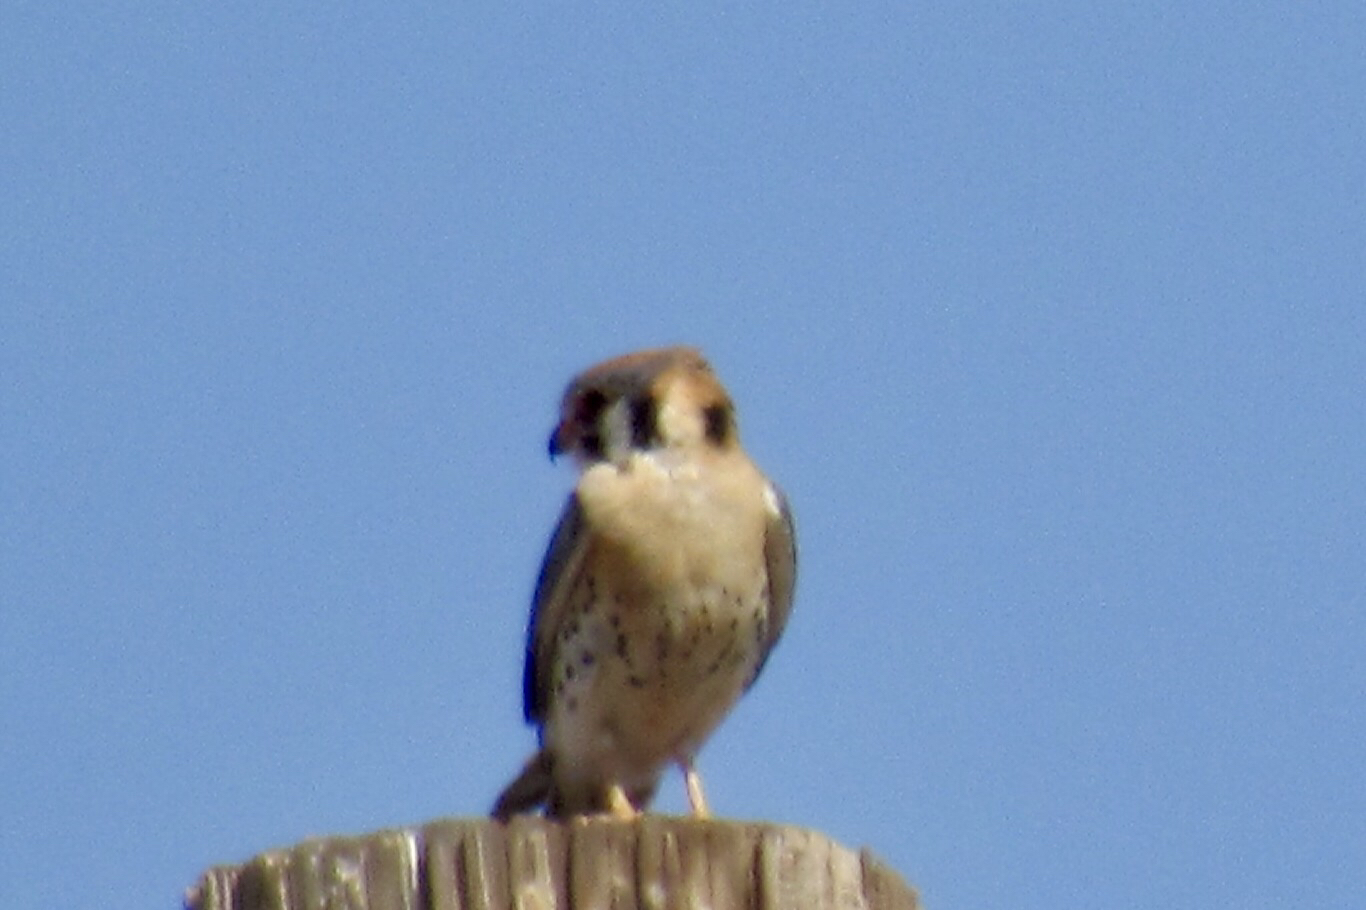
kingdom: Animalia
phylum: Chordata
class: Aves
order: Falconiformes
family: Falconidae
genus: Falco
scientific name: Falco sparverius
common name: American kestrel
